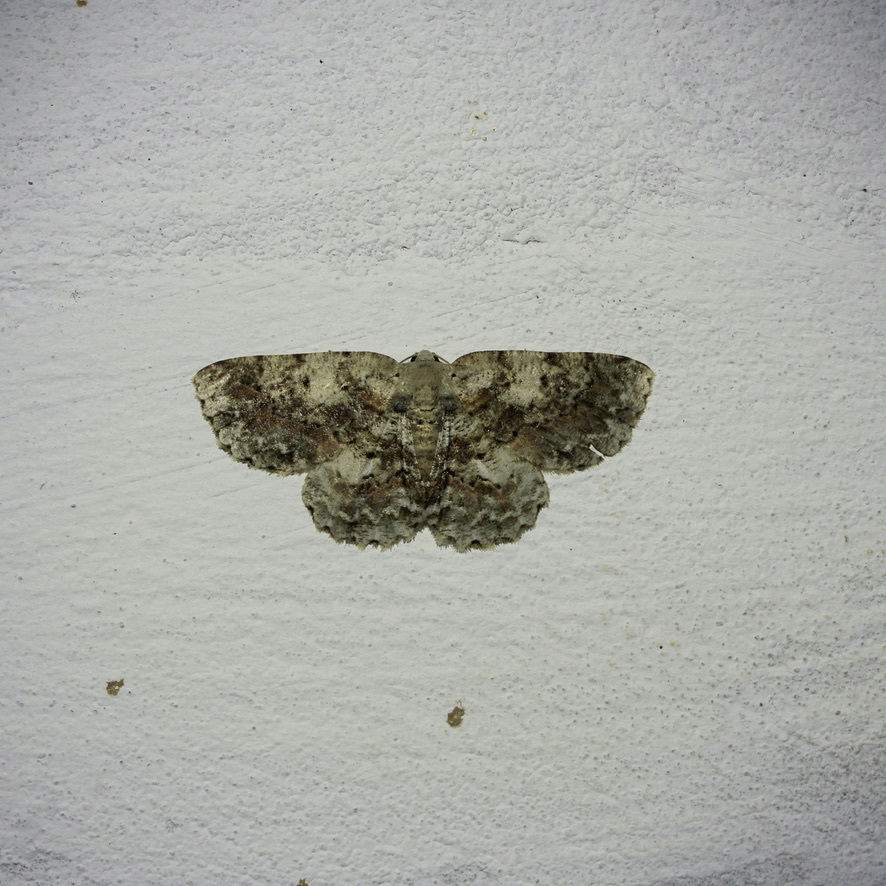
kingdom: Animalia
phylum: Arthropoda
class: Insecta
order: Lepidoptera
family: Geometridae
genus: Bryoptera
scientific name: Bryoptera hypomelas
